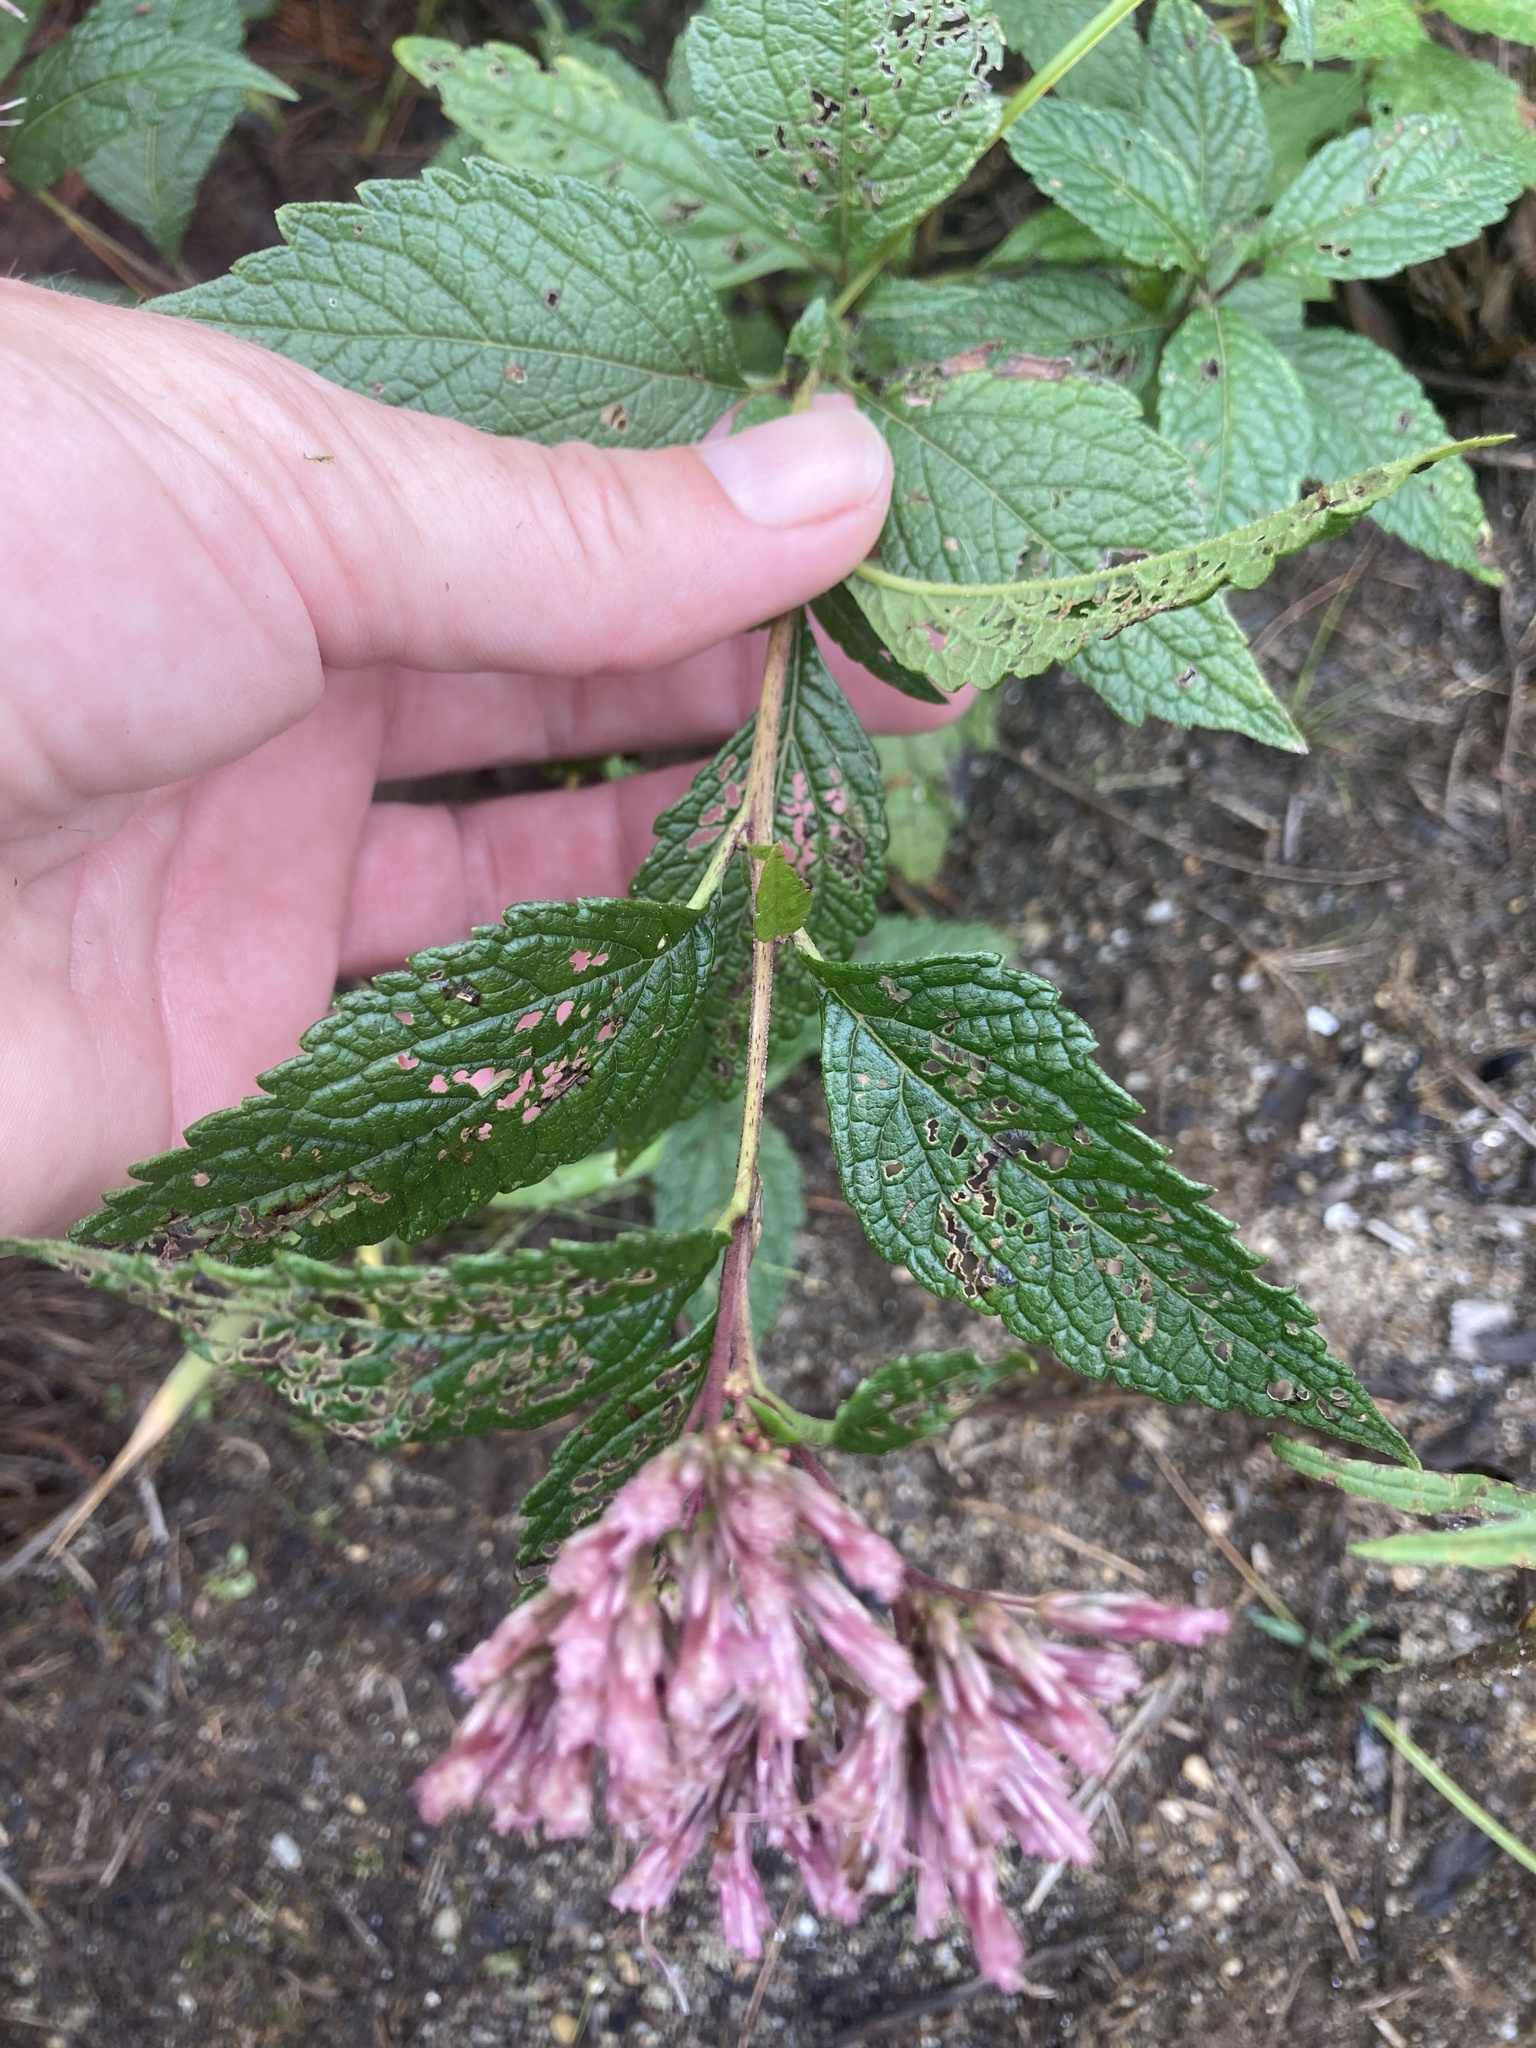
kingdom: Plantae
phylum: Tracheophyta
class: Magnoliopsida
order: Asterales
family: Asteraceae
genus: Eutrochium
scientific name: Eutrochium dubium
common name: Coastal plain joe pye weed
